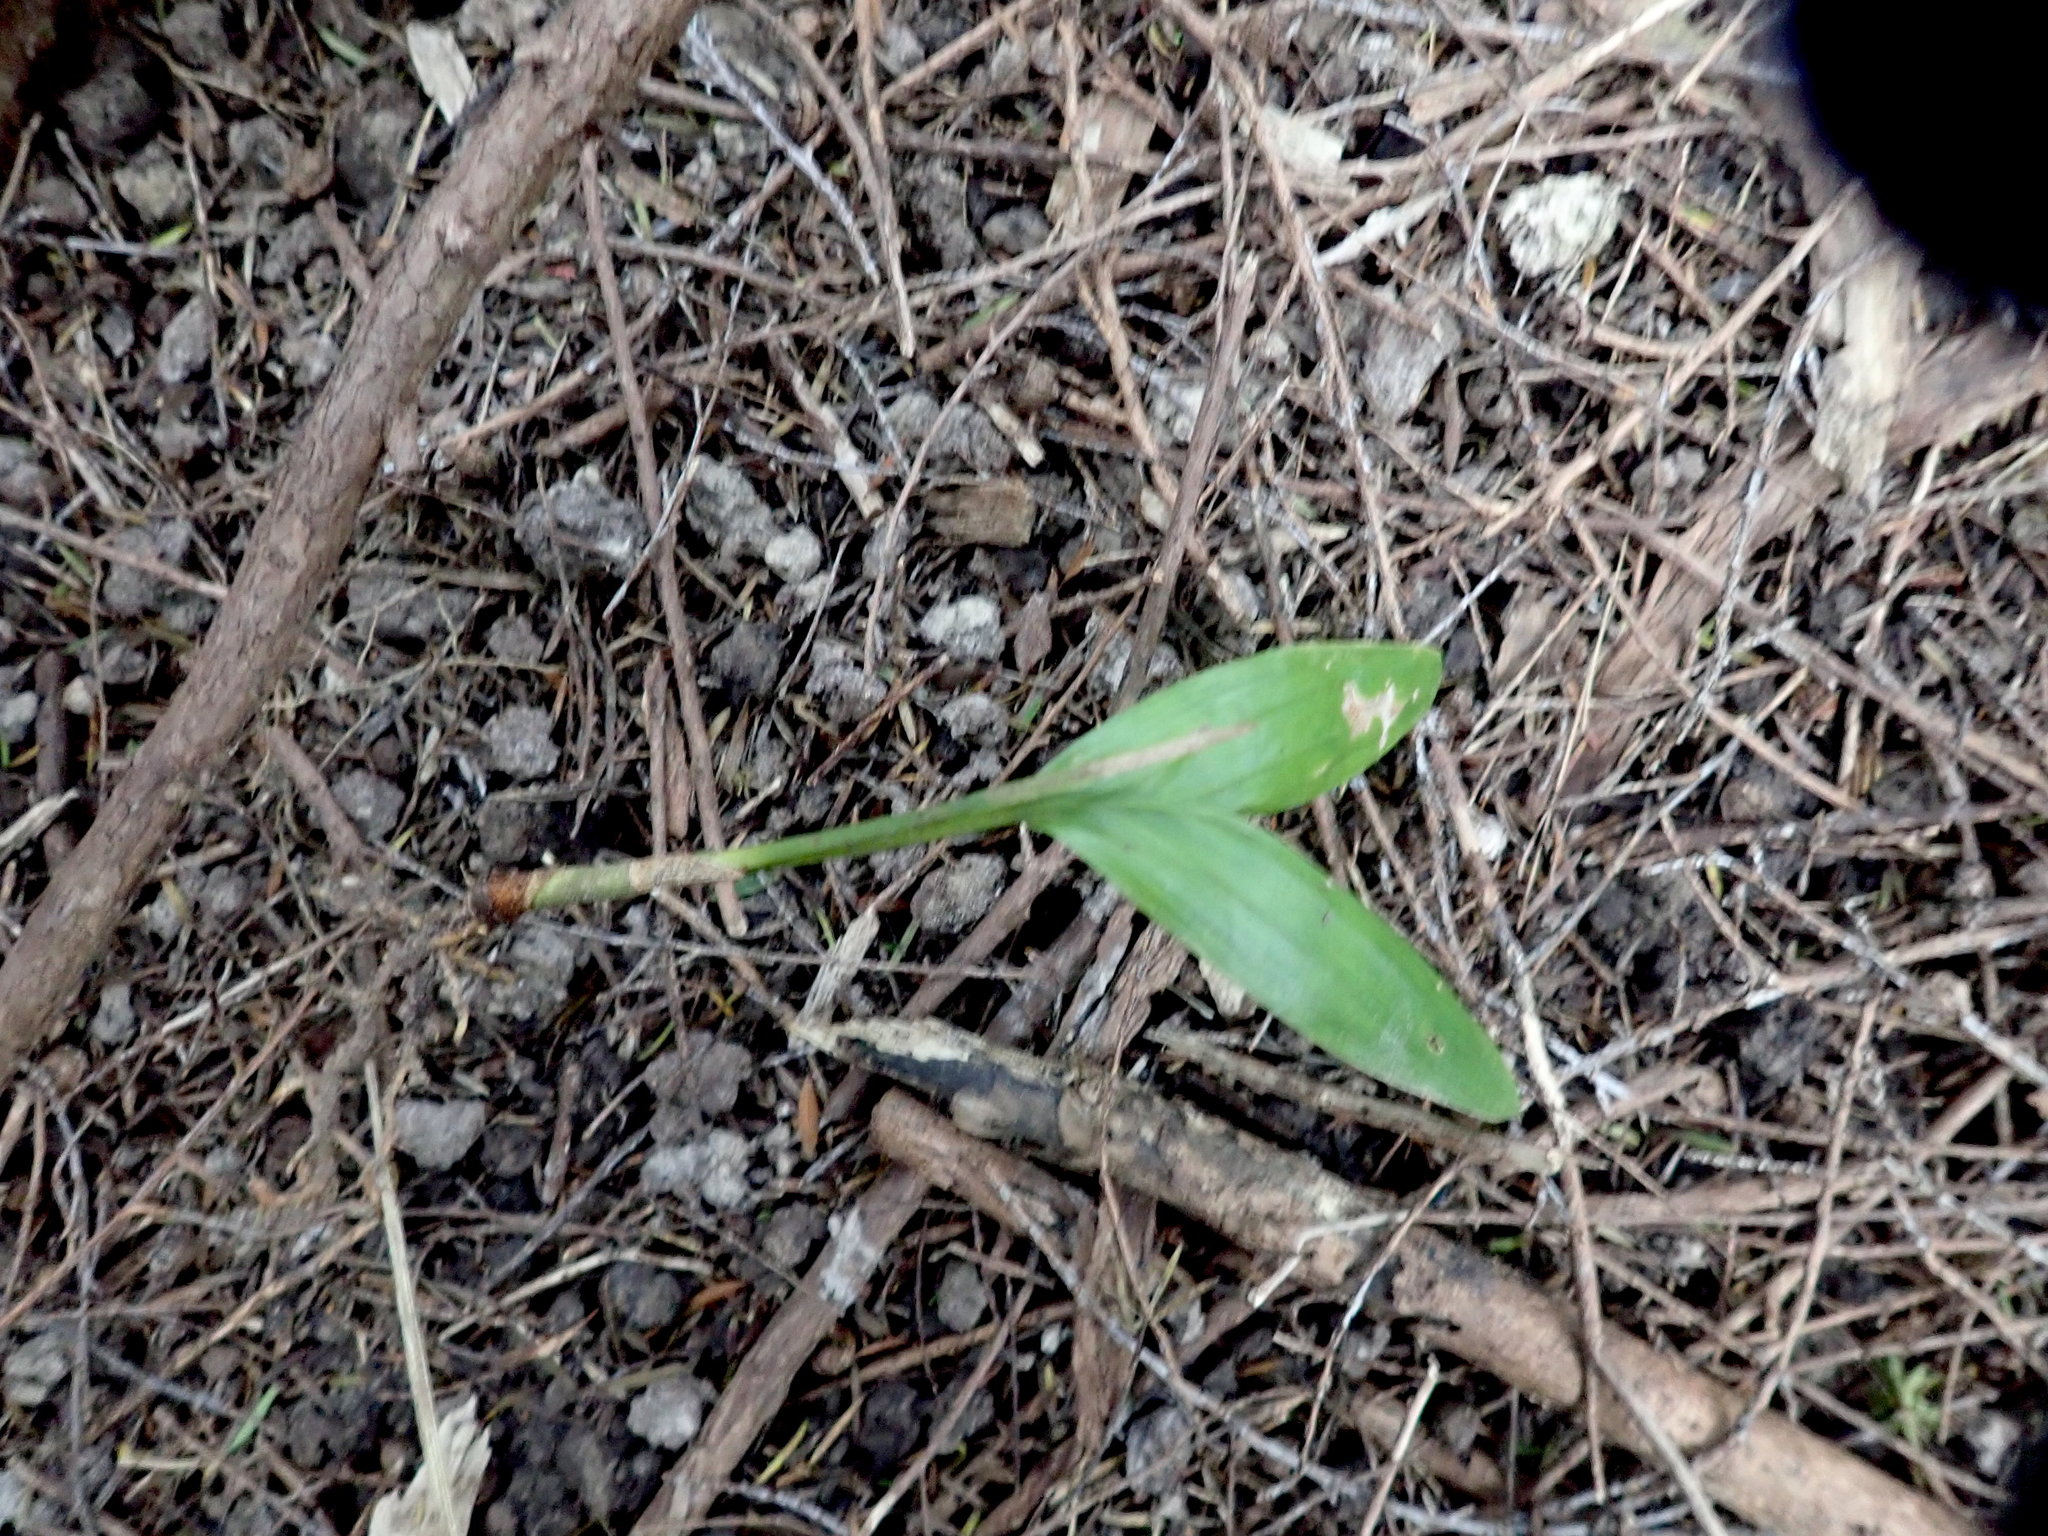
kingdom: Plantae
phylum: Tracheophyta
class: Liliopsida
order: Arecales
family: Arecaceae
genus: Archontophoenix
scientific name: Archontophoenix cunninghamiana
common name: Piccabeen bangalow palm
